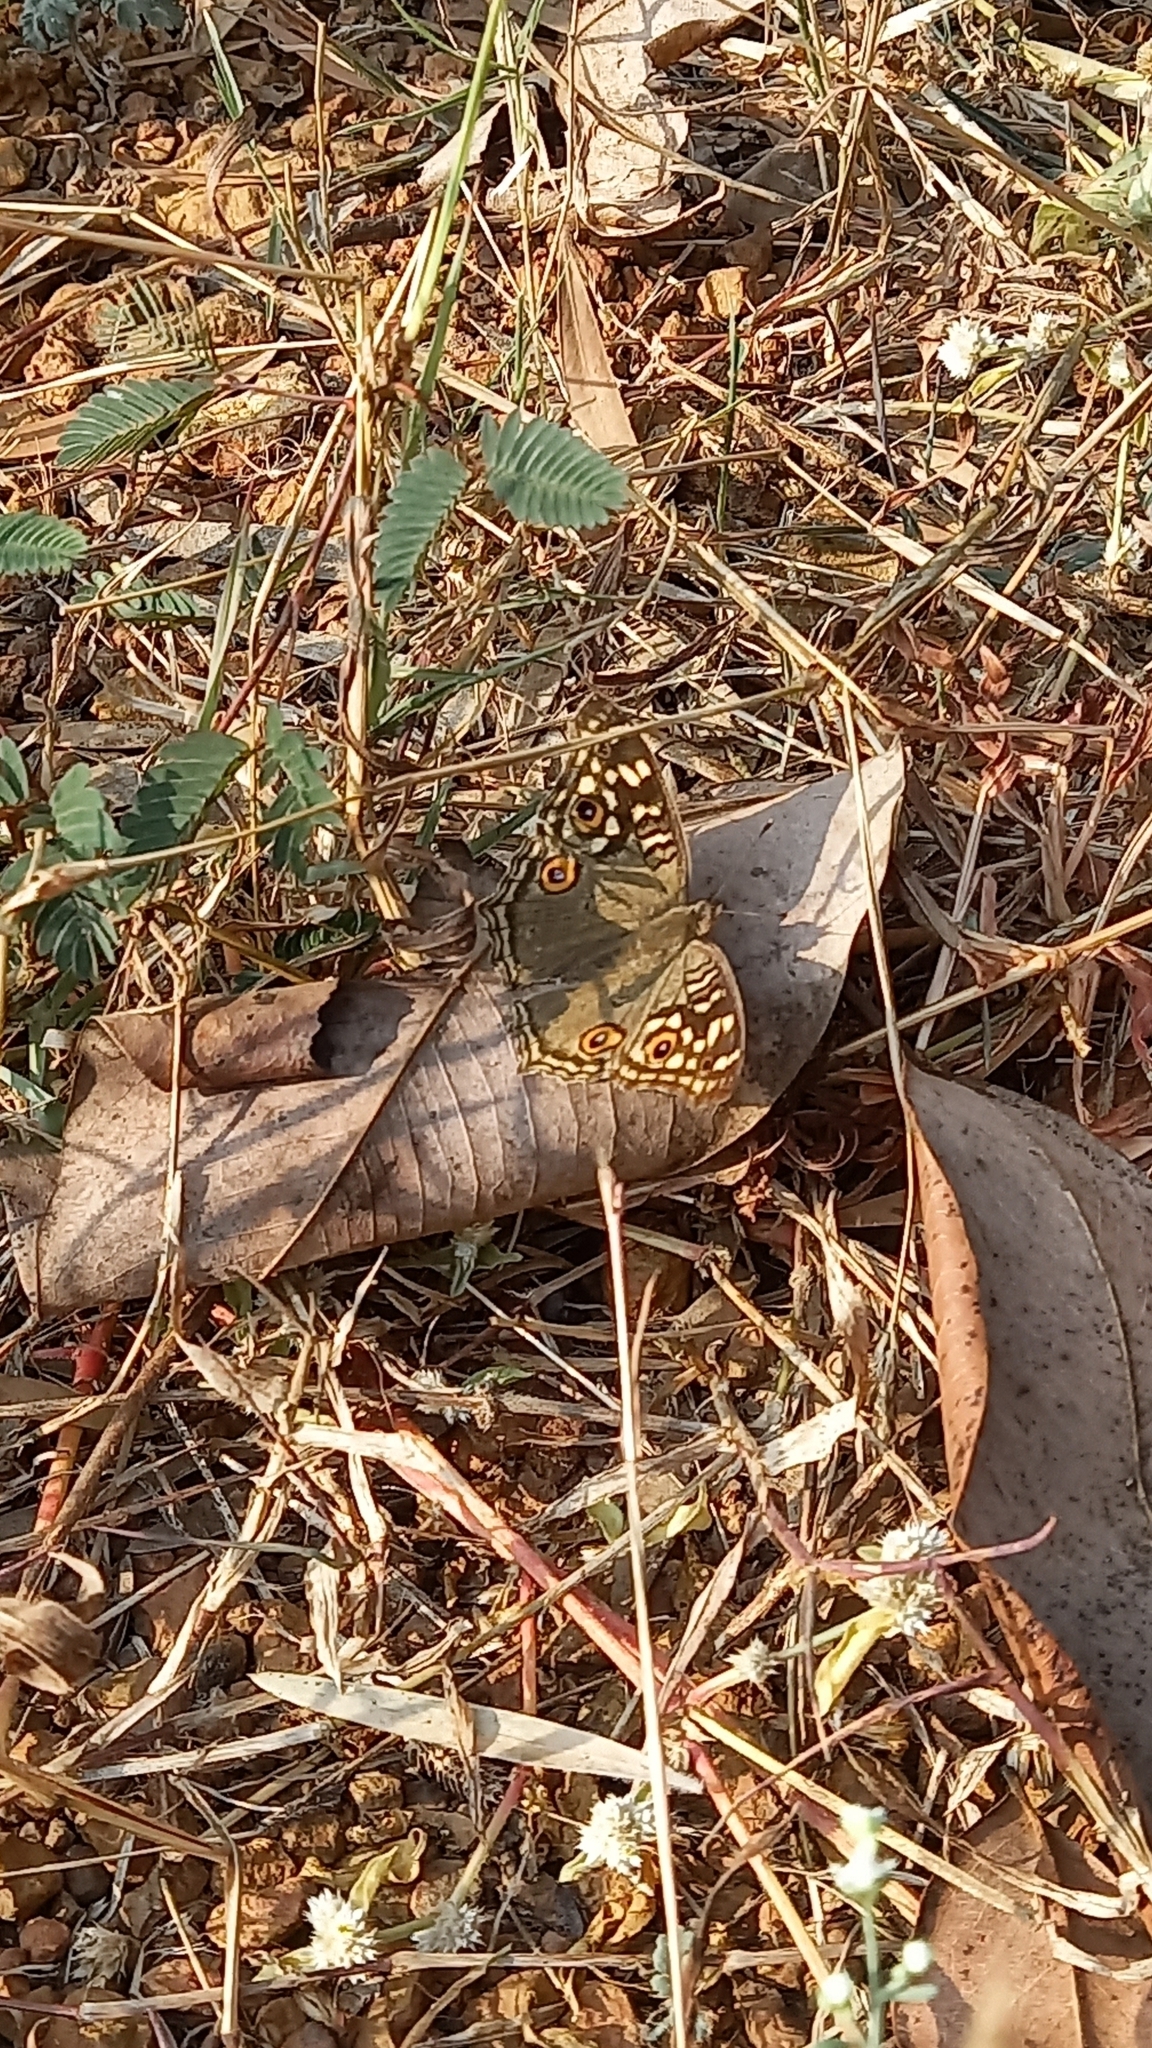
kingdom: Animalia
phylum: Arthropoda
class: Insecta
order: Lepidoptera
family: Nymphalidae
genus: Junonia
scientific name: Junonia lemonias
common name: Lemon pansy
